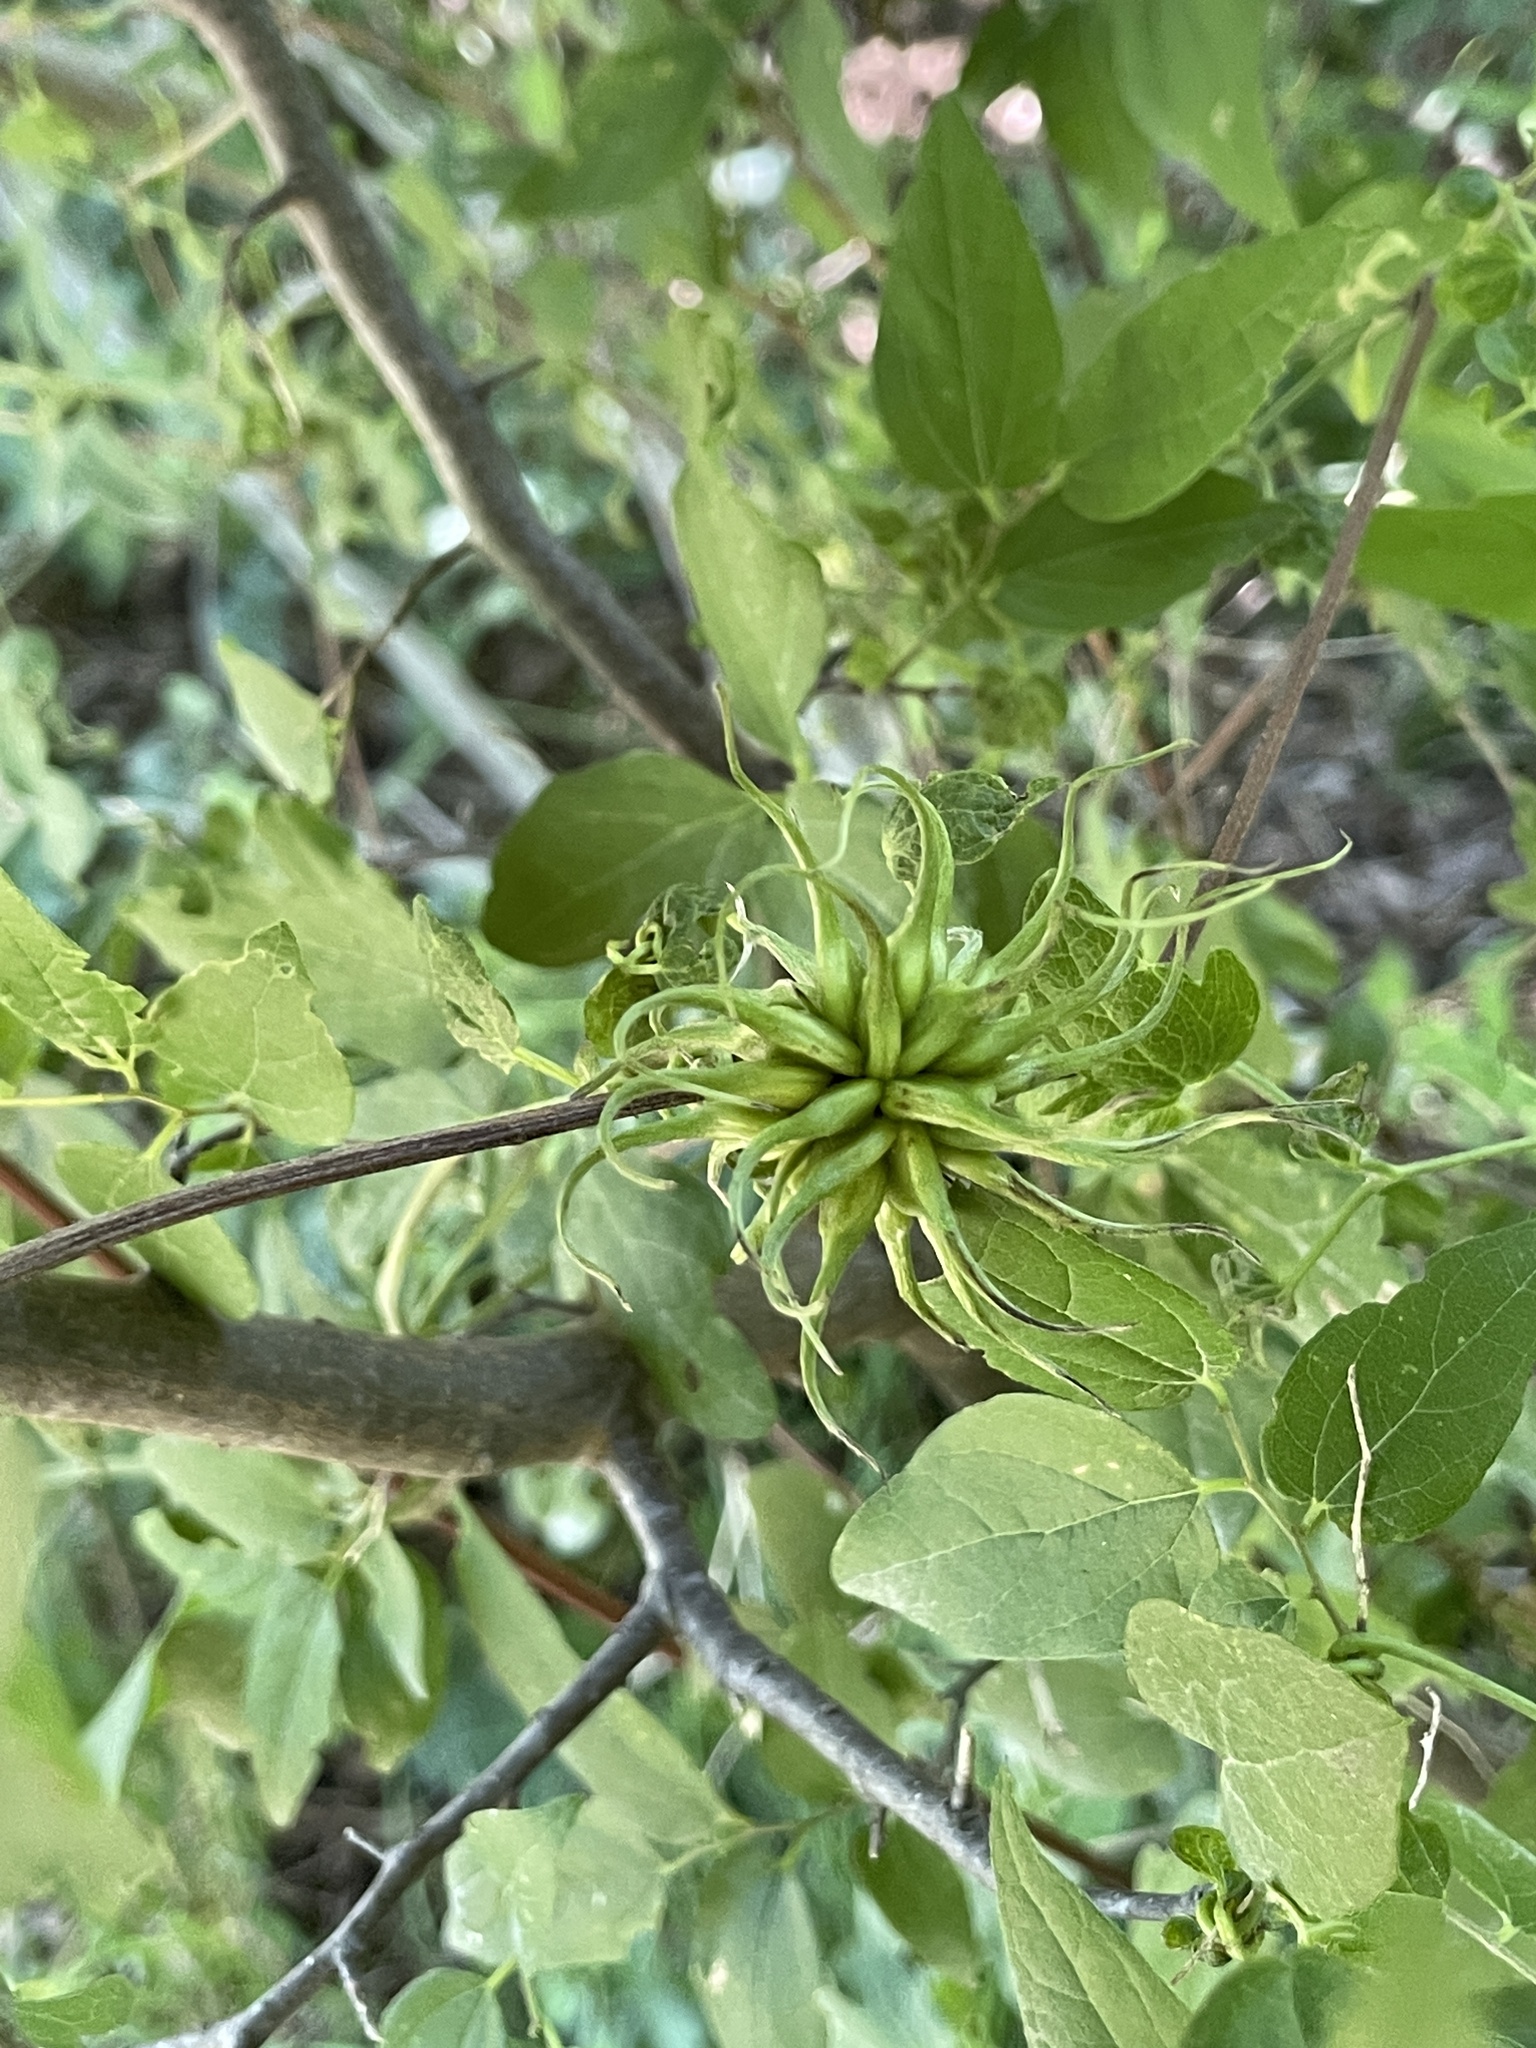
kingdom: Plantae
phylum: Tracheophyta
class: Magnoliopsida
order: Ranunculales
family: Ranunculaceae
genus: Clematis
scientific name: Clematis pitcheri
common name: Bellflower clematis
